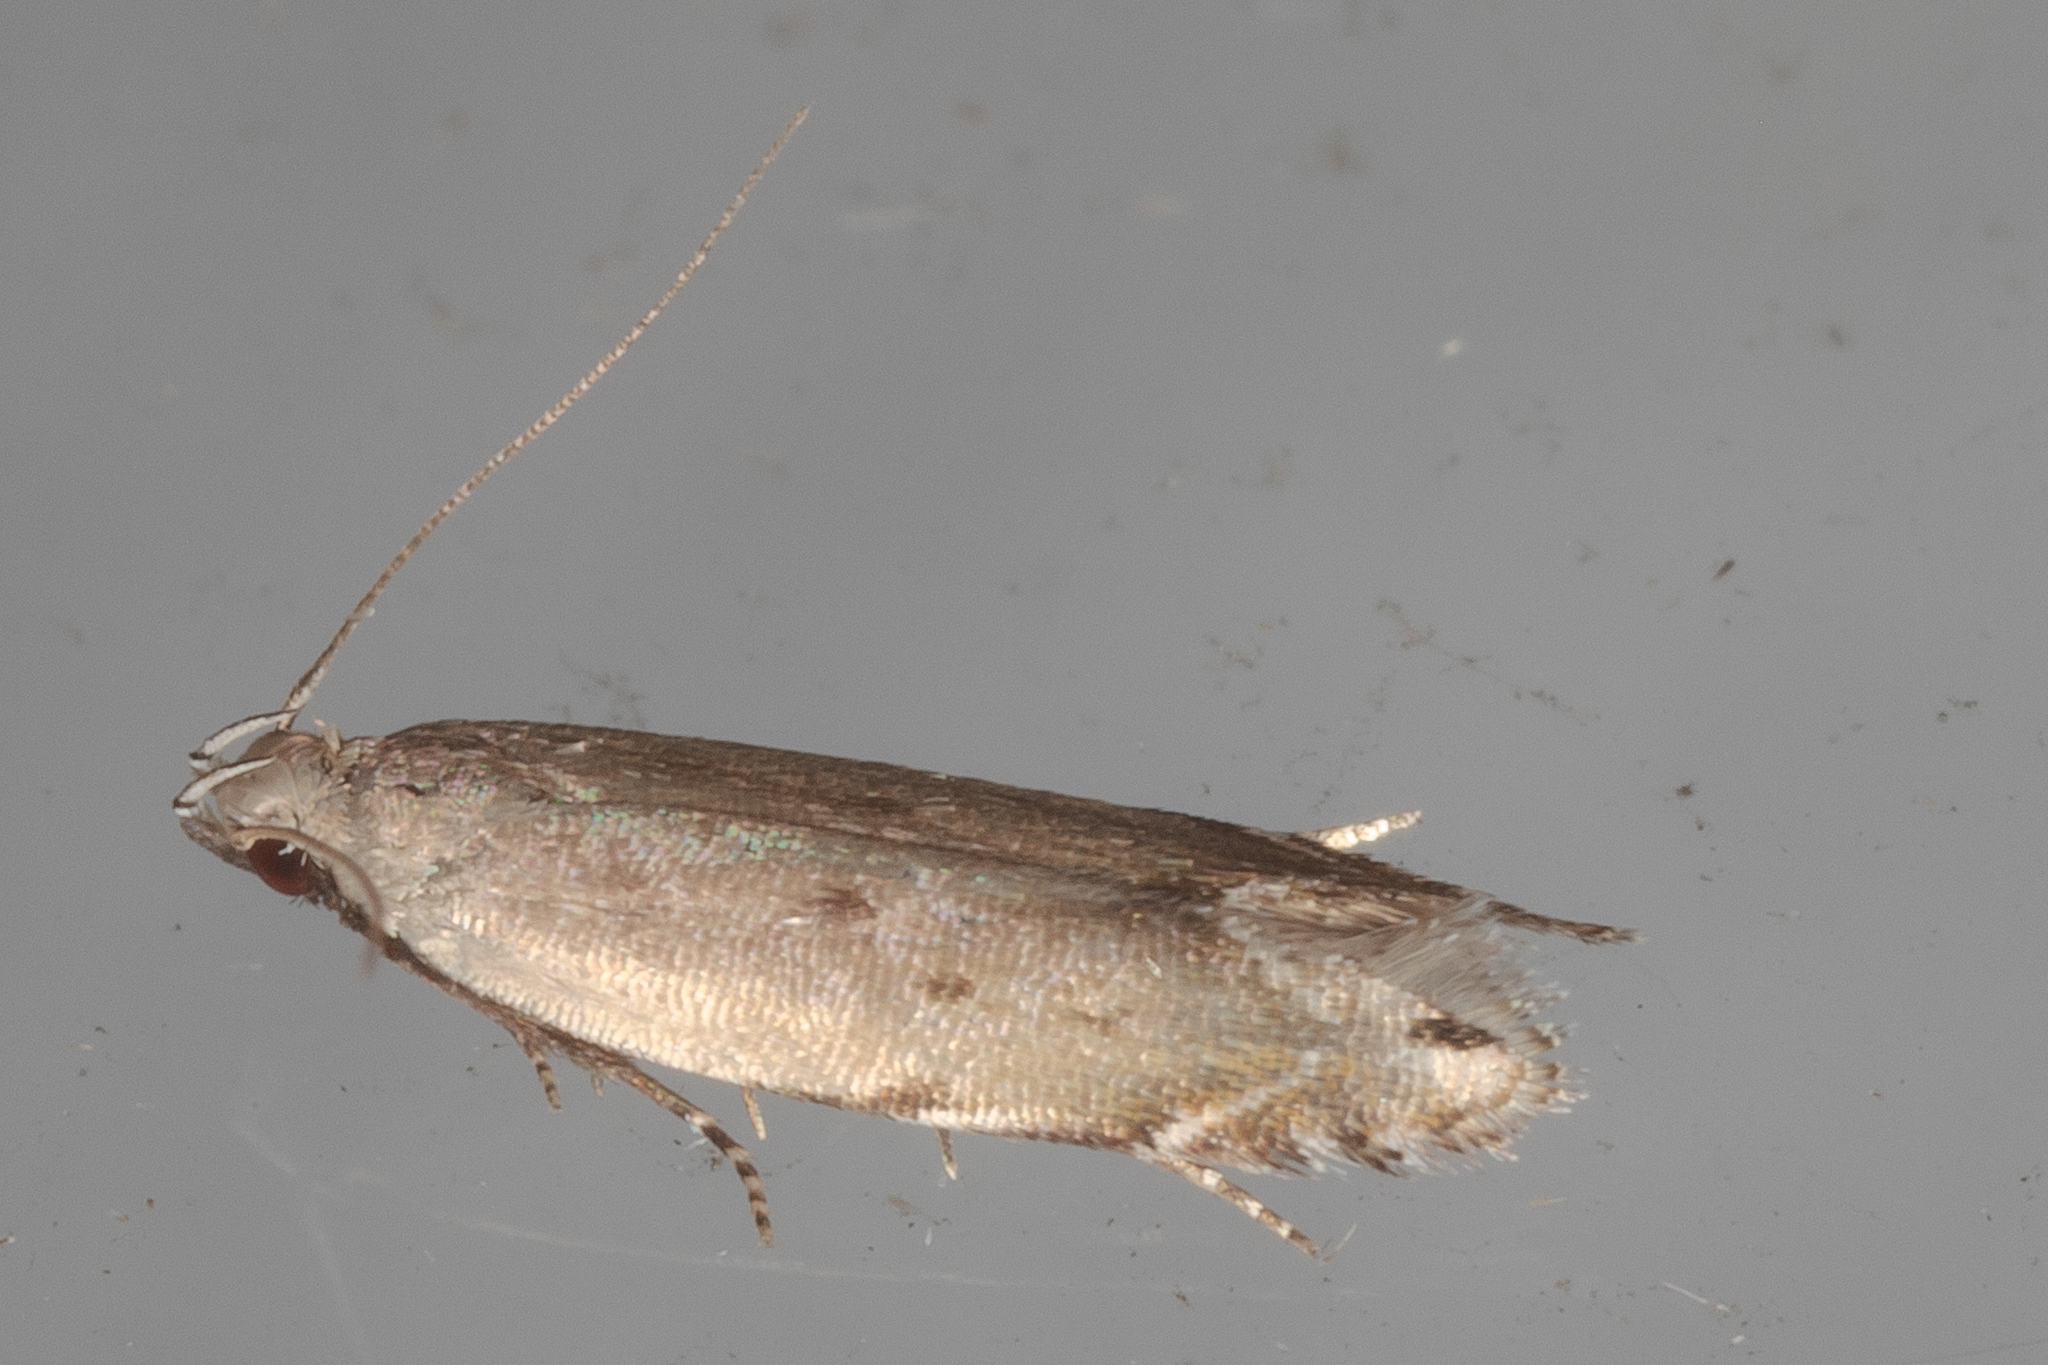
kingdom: Animalia
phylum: Arthropoda
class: Insecta
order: Lepidoptera
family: Gelechiidae
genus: Battaristis
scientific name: Battaristis concinnusella
